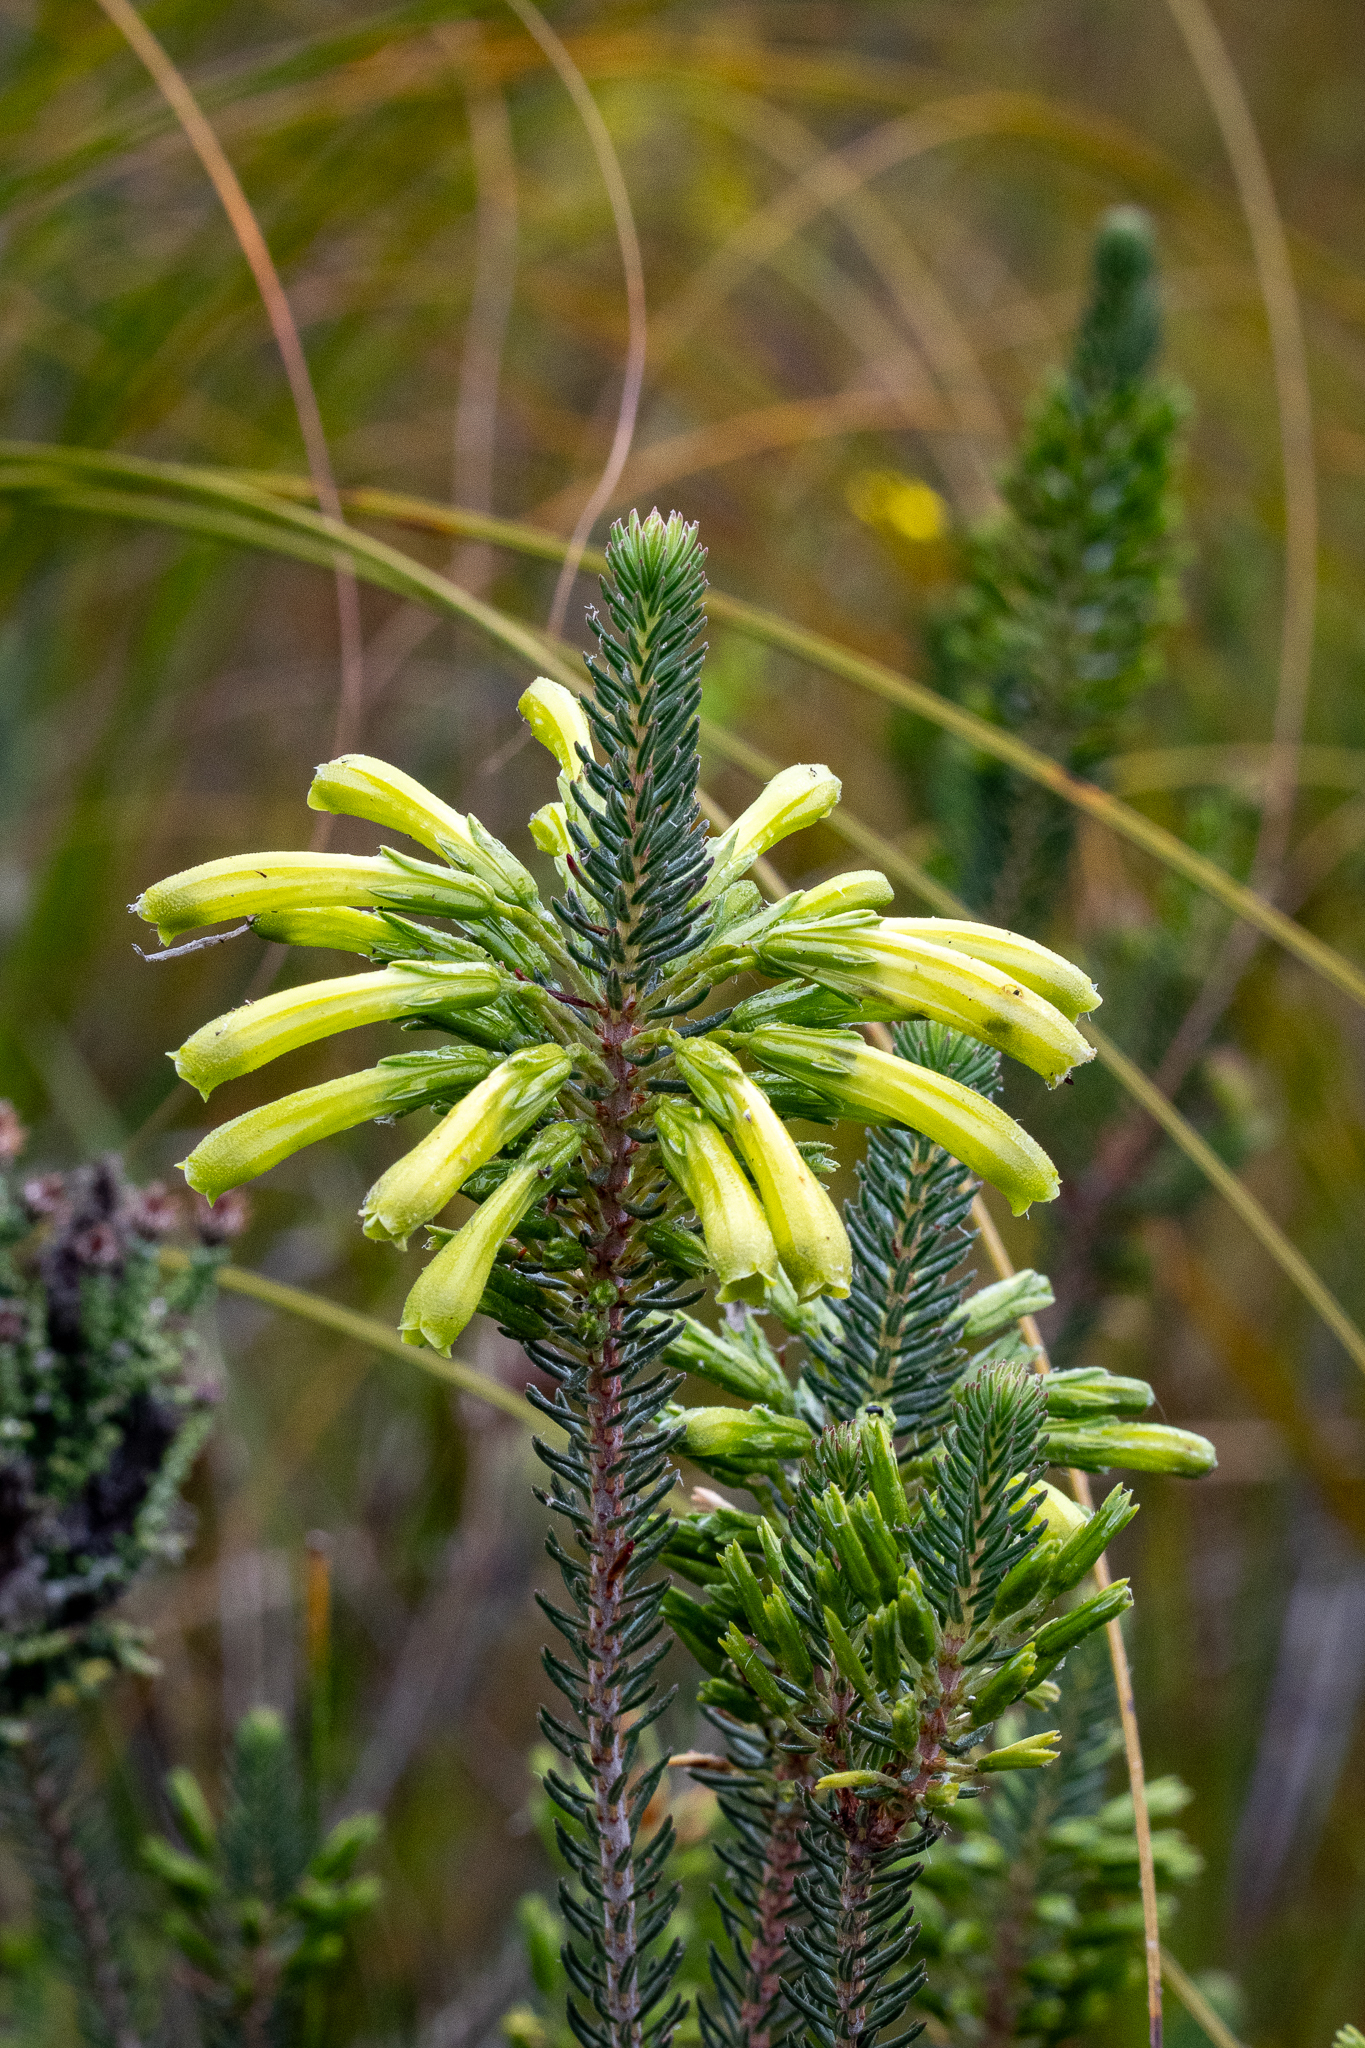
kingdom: Plantae
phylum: Tracheophyta
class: Magnoliopsida
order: Ericales
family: Ericaceae
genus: Erica
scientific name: Erica thomae
